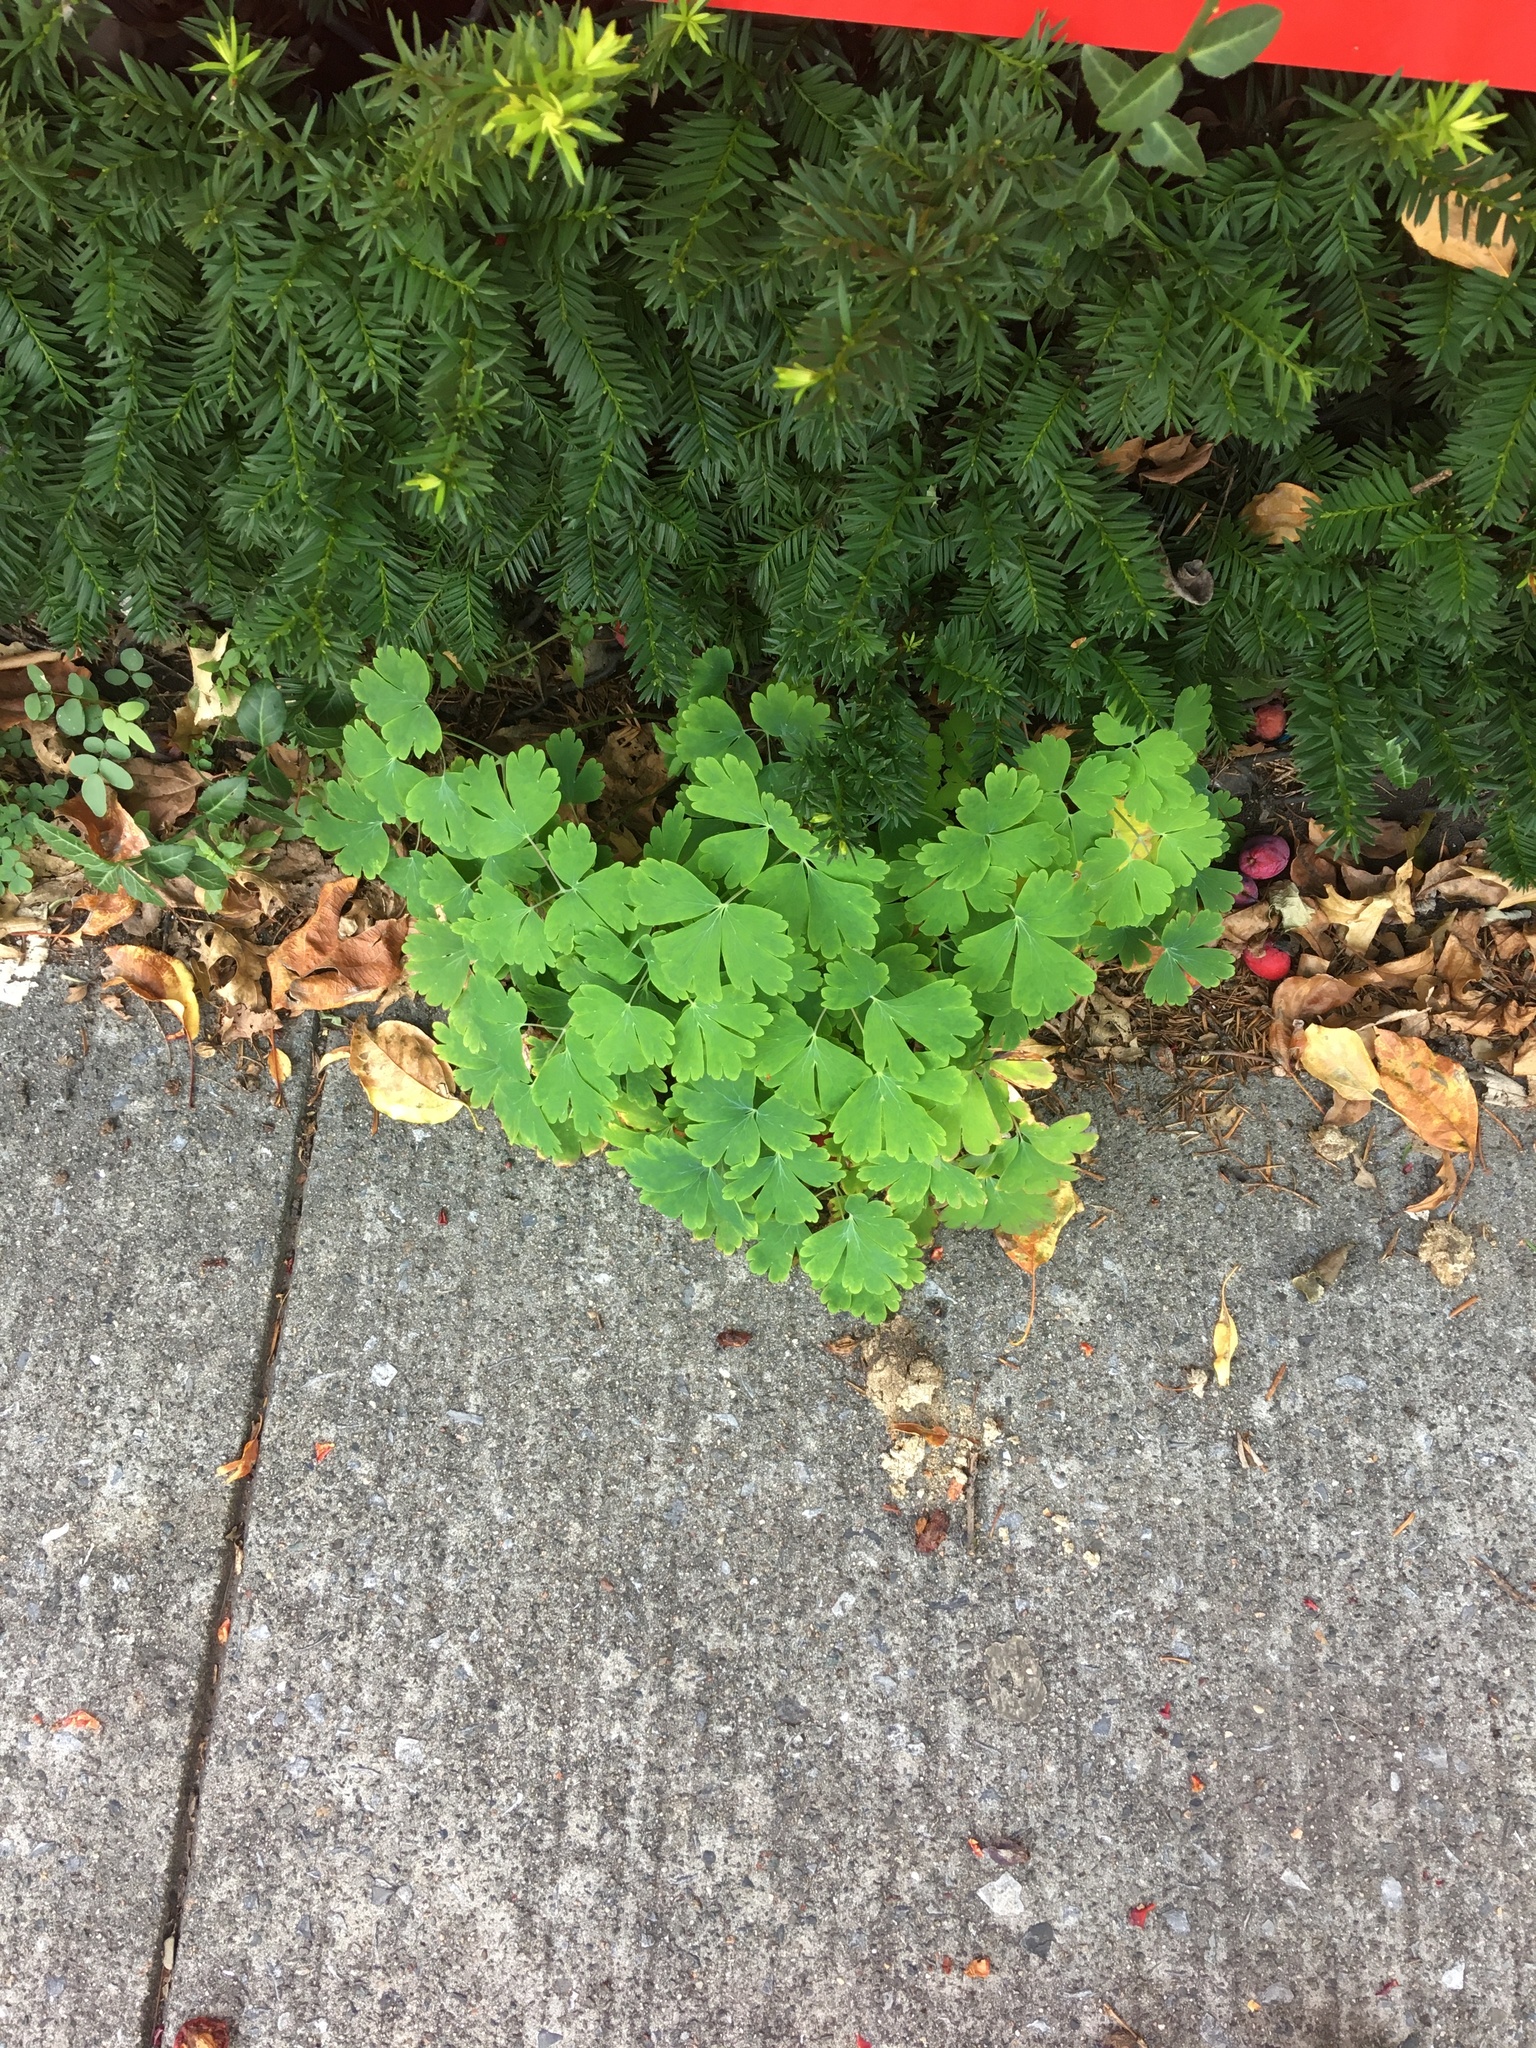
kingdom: Plantae
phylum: Tracheophyta
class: Magnoliopsida
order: Ranunculales
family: Ranunculaceae
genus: Aquilegia
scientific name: Aquilegia canadensis
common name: American columbine
